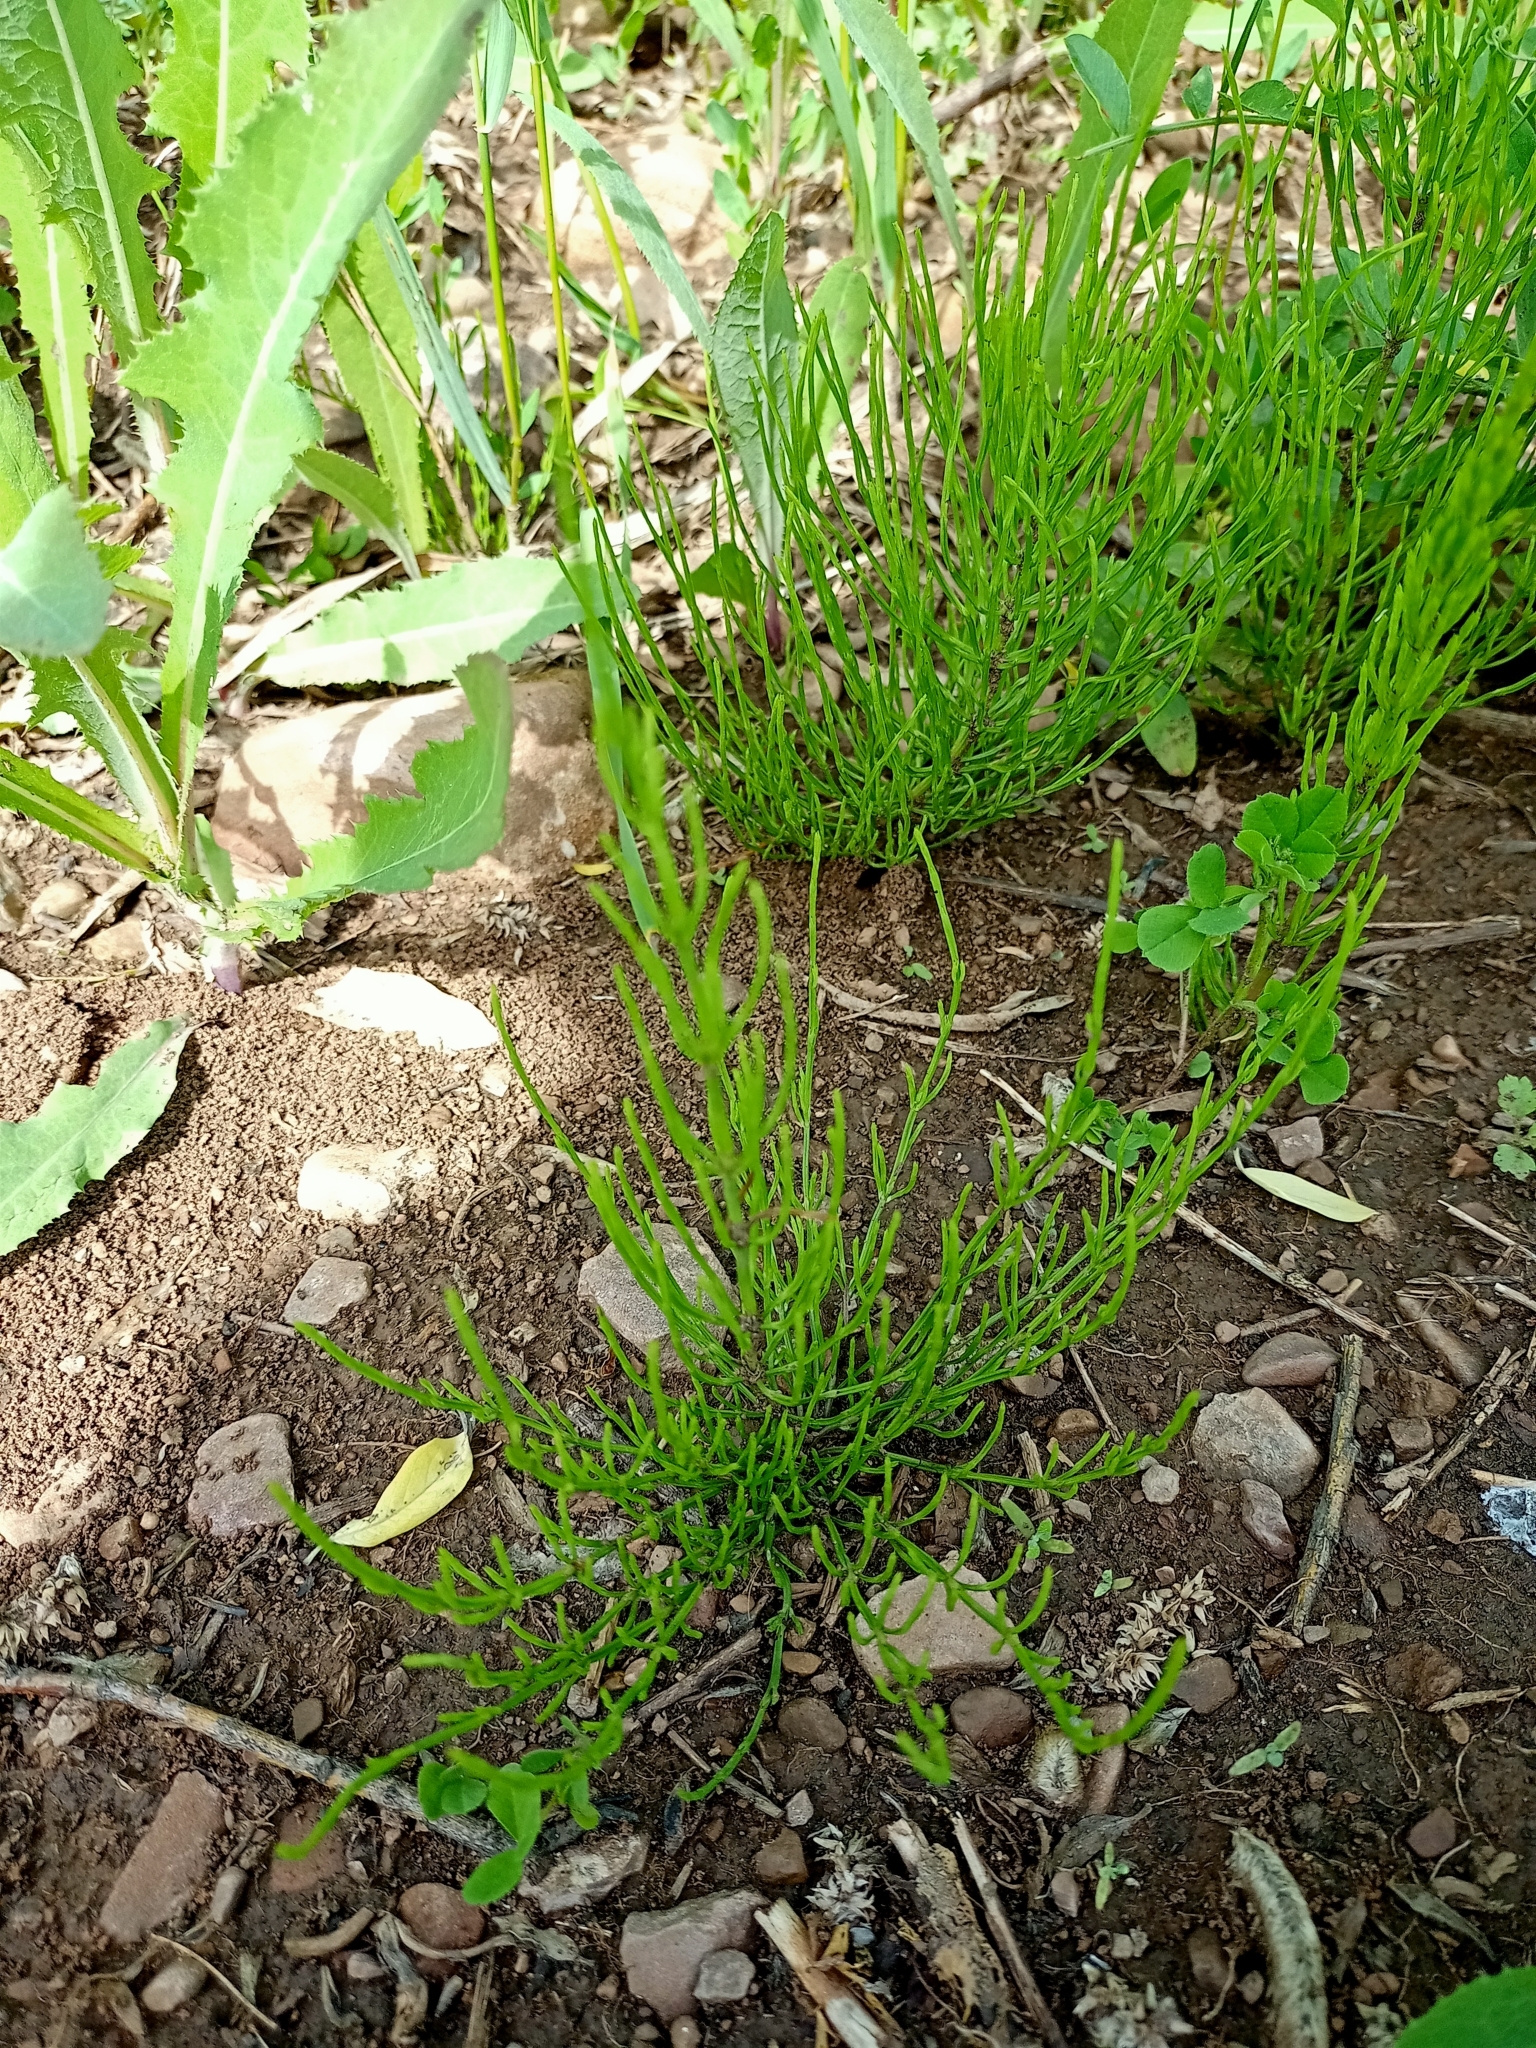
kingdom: Plantae
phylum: Tracheophyta
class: Polypodiopsida
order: Equisetales
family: Equisetaceae
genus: Equisetum
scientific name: Equisetum arvense
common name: Field horsetail
